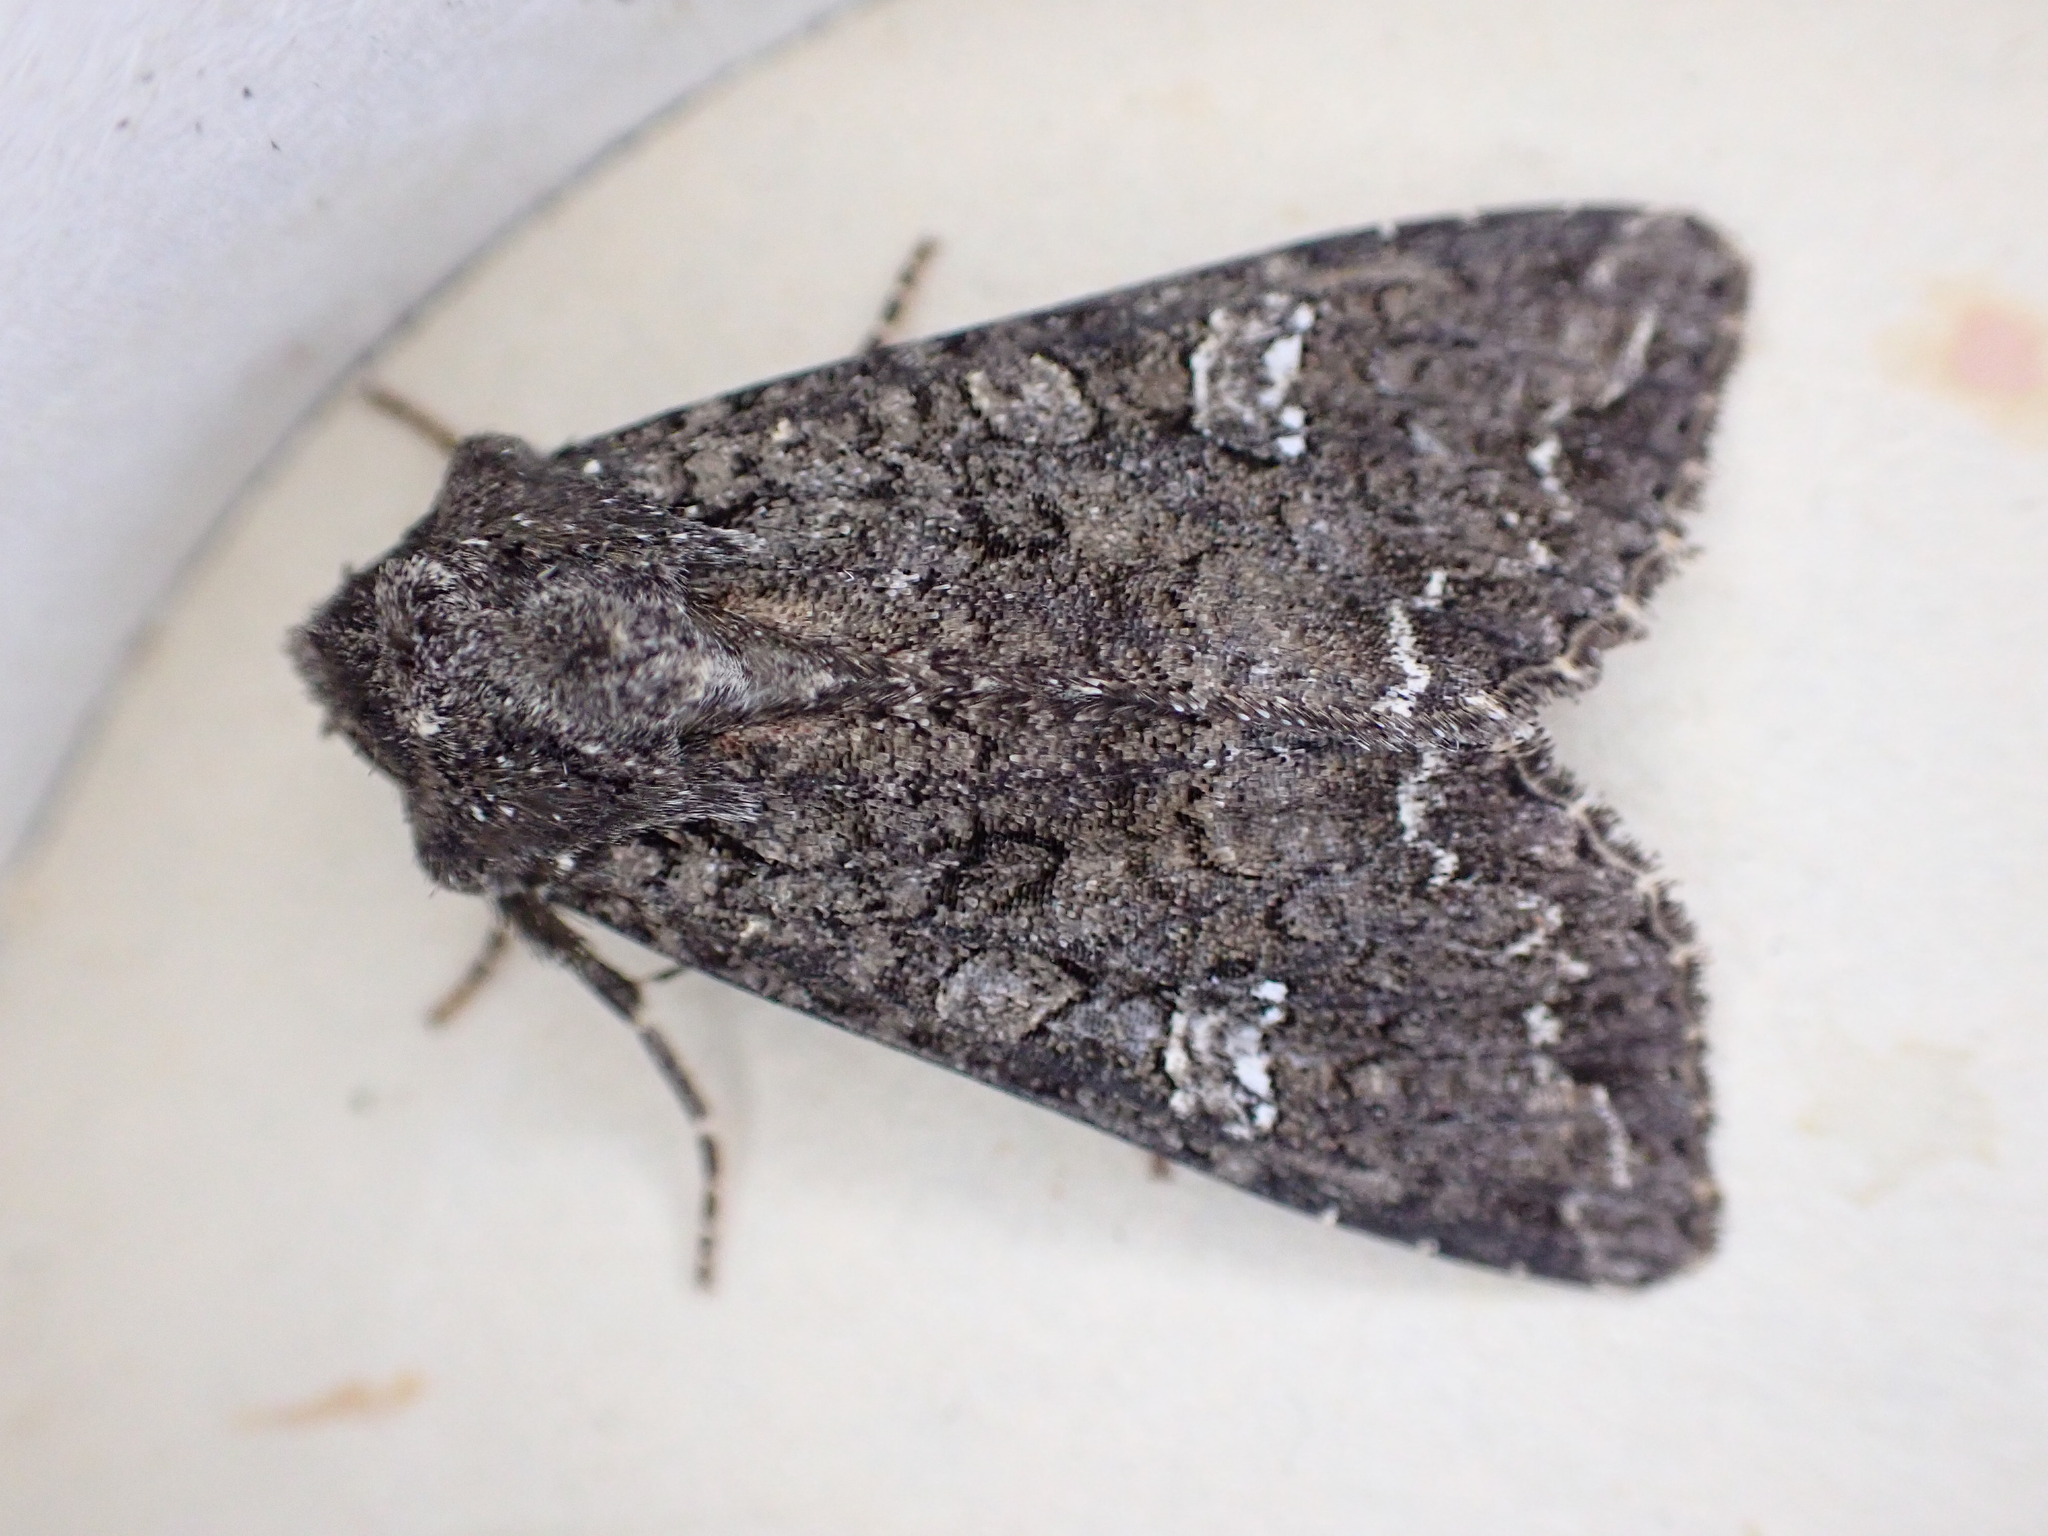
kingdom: Animalia
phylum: Arthropoda
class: Insecta
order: Lepidoptera
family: Noctuidae
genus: Mamestra
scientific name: Mamestra brassicae
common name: Cabbage moth
